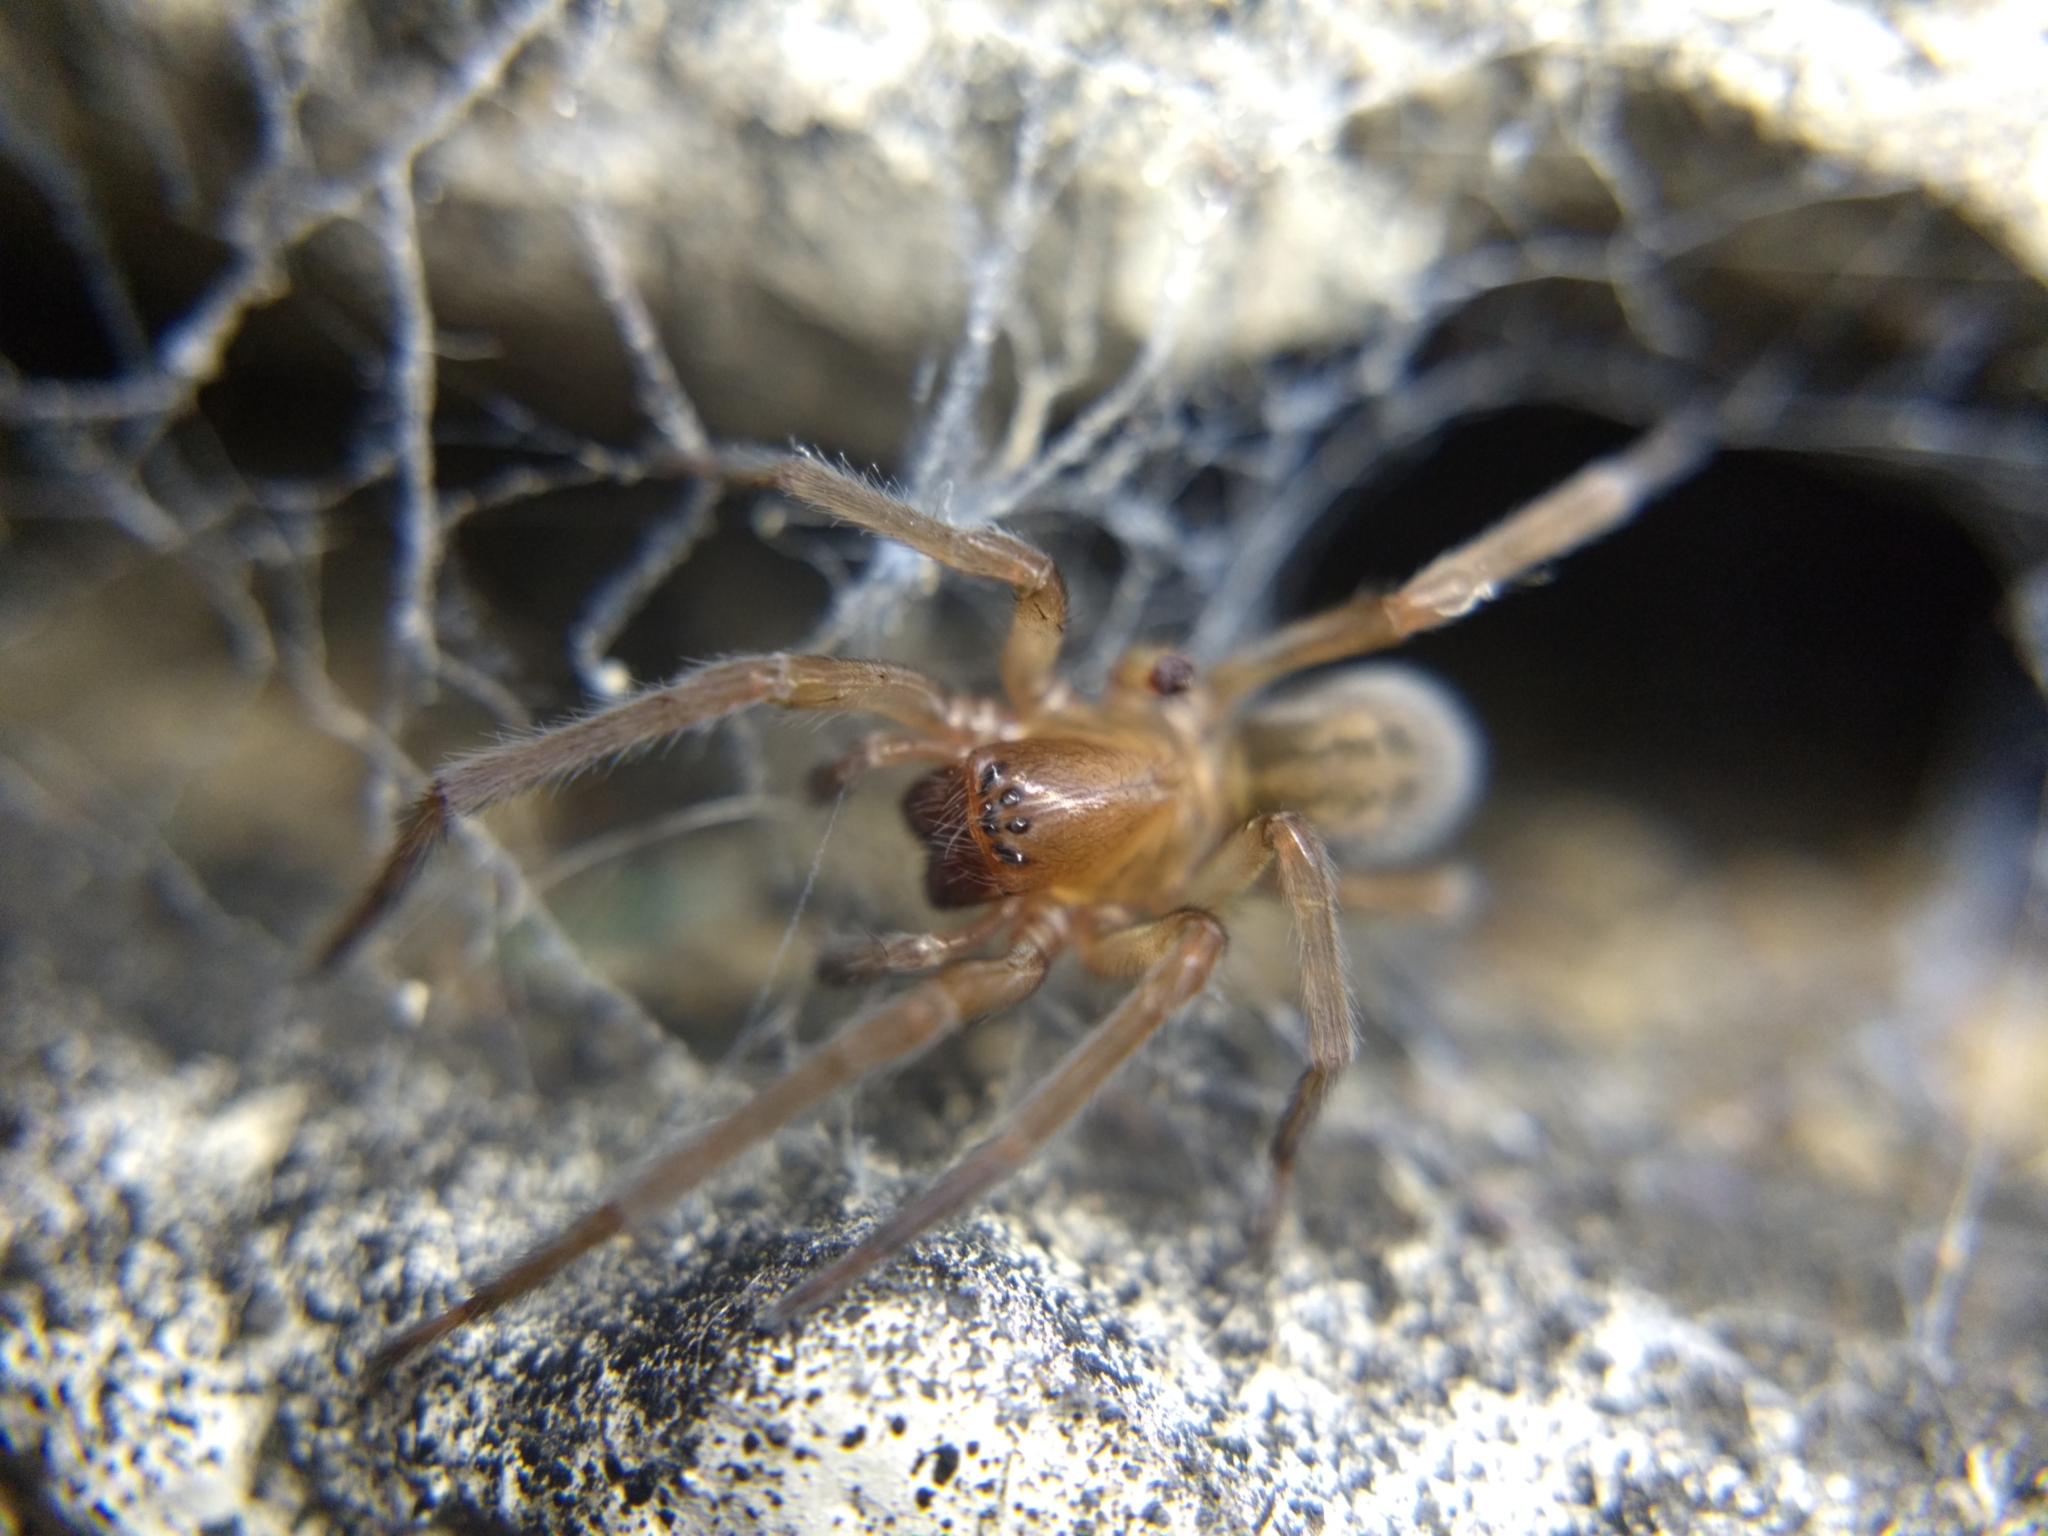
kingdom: Animalia
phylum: Arthropoda
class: Arachnida
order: Araneae
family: Amaurobiidae
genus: Amaurobius
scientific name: Amaurobius ferox
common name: Black laceweaver
